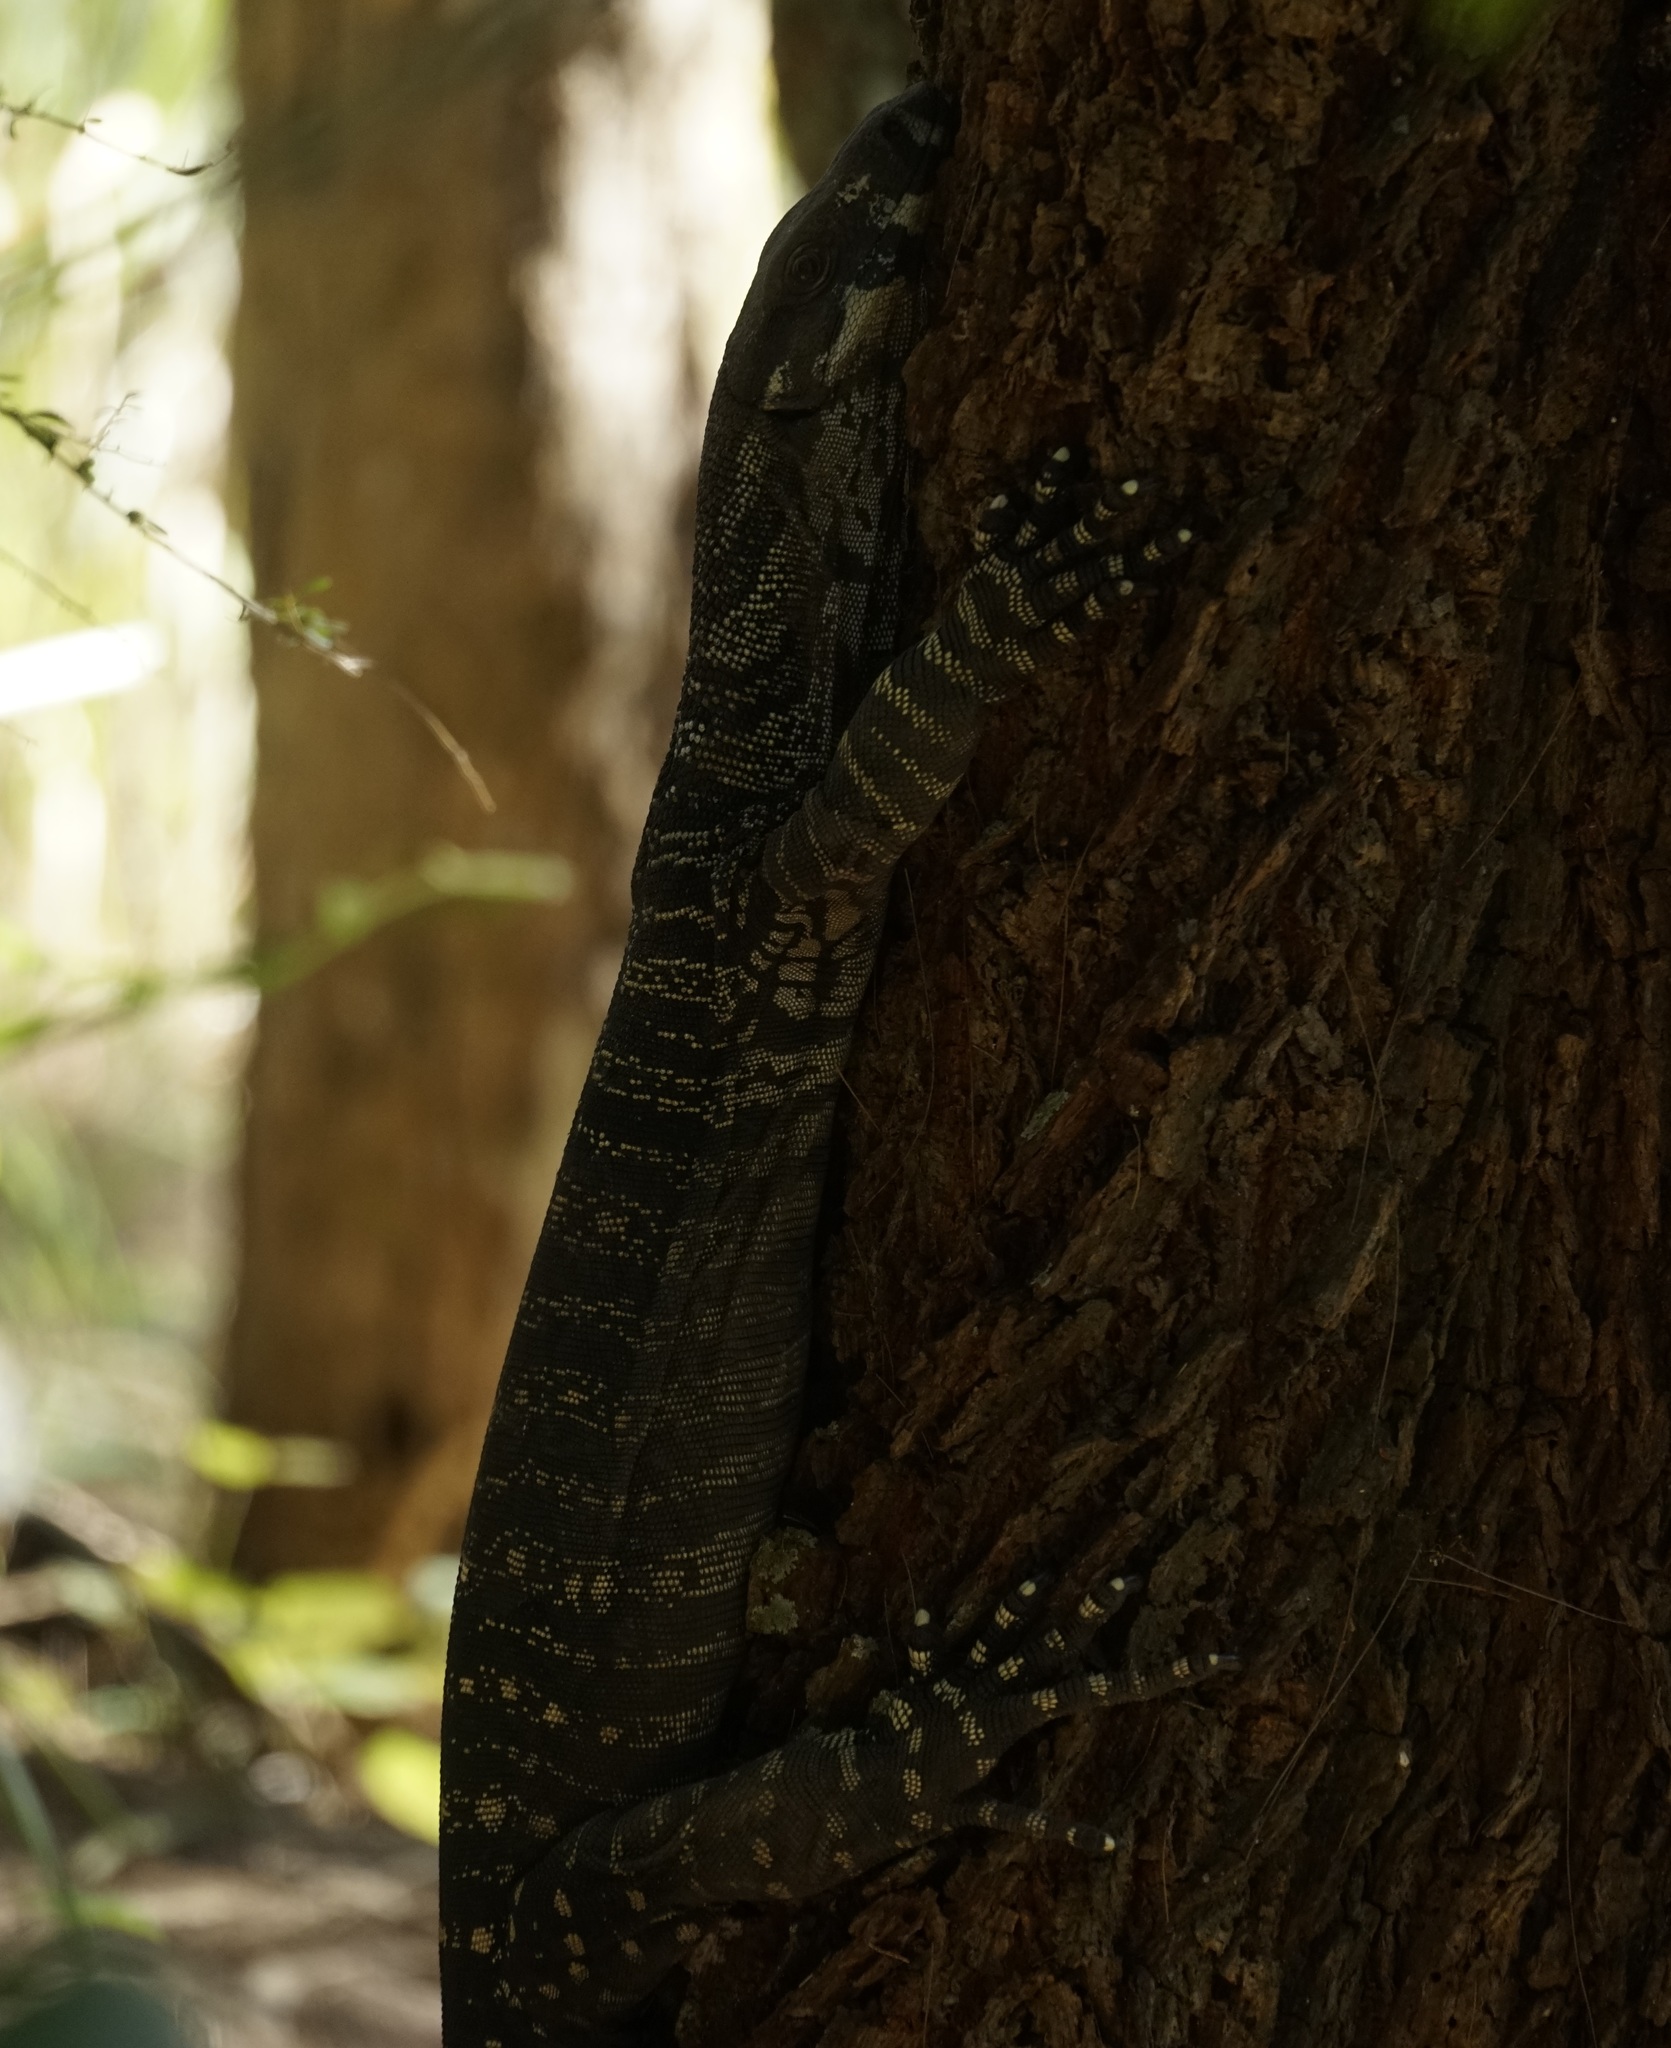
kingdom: Animalia
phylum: Chordata
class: Squamata
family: Varanidae
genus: Varanus
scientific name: Varanus varius
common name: Lace monitor
